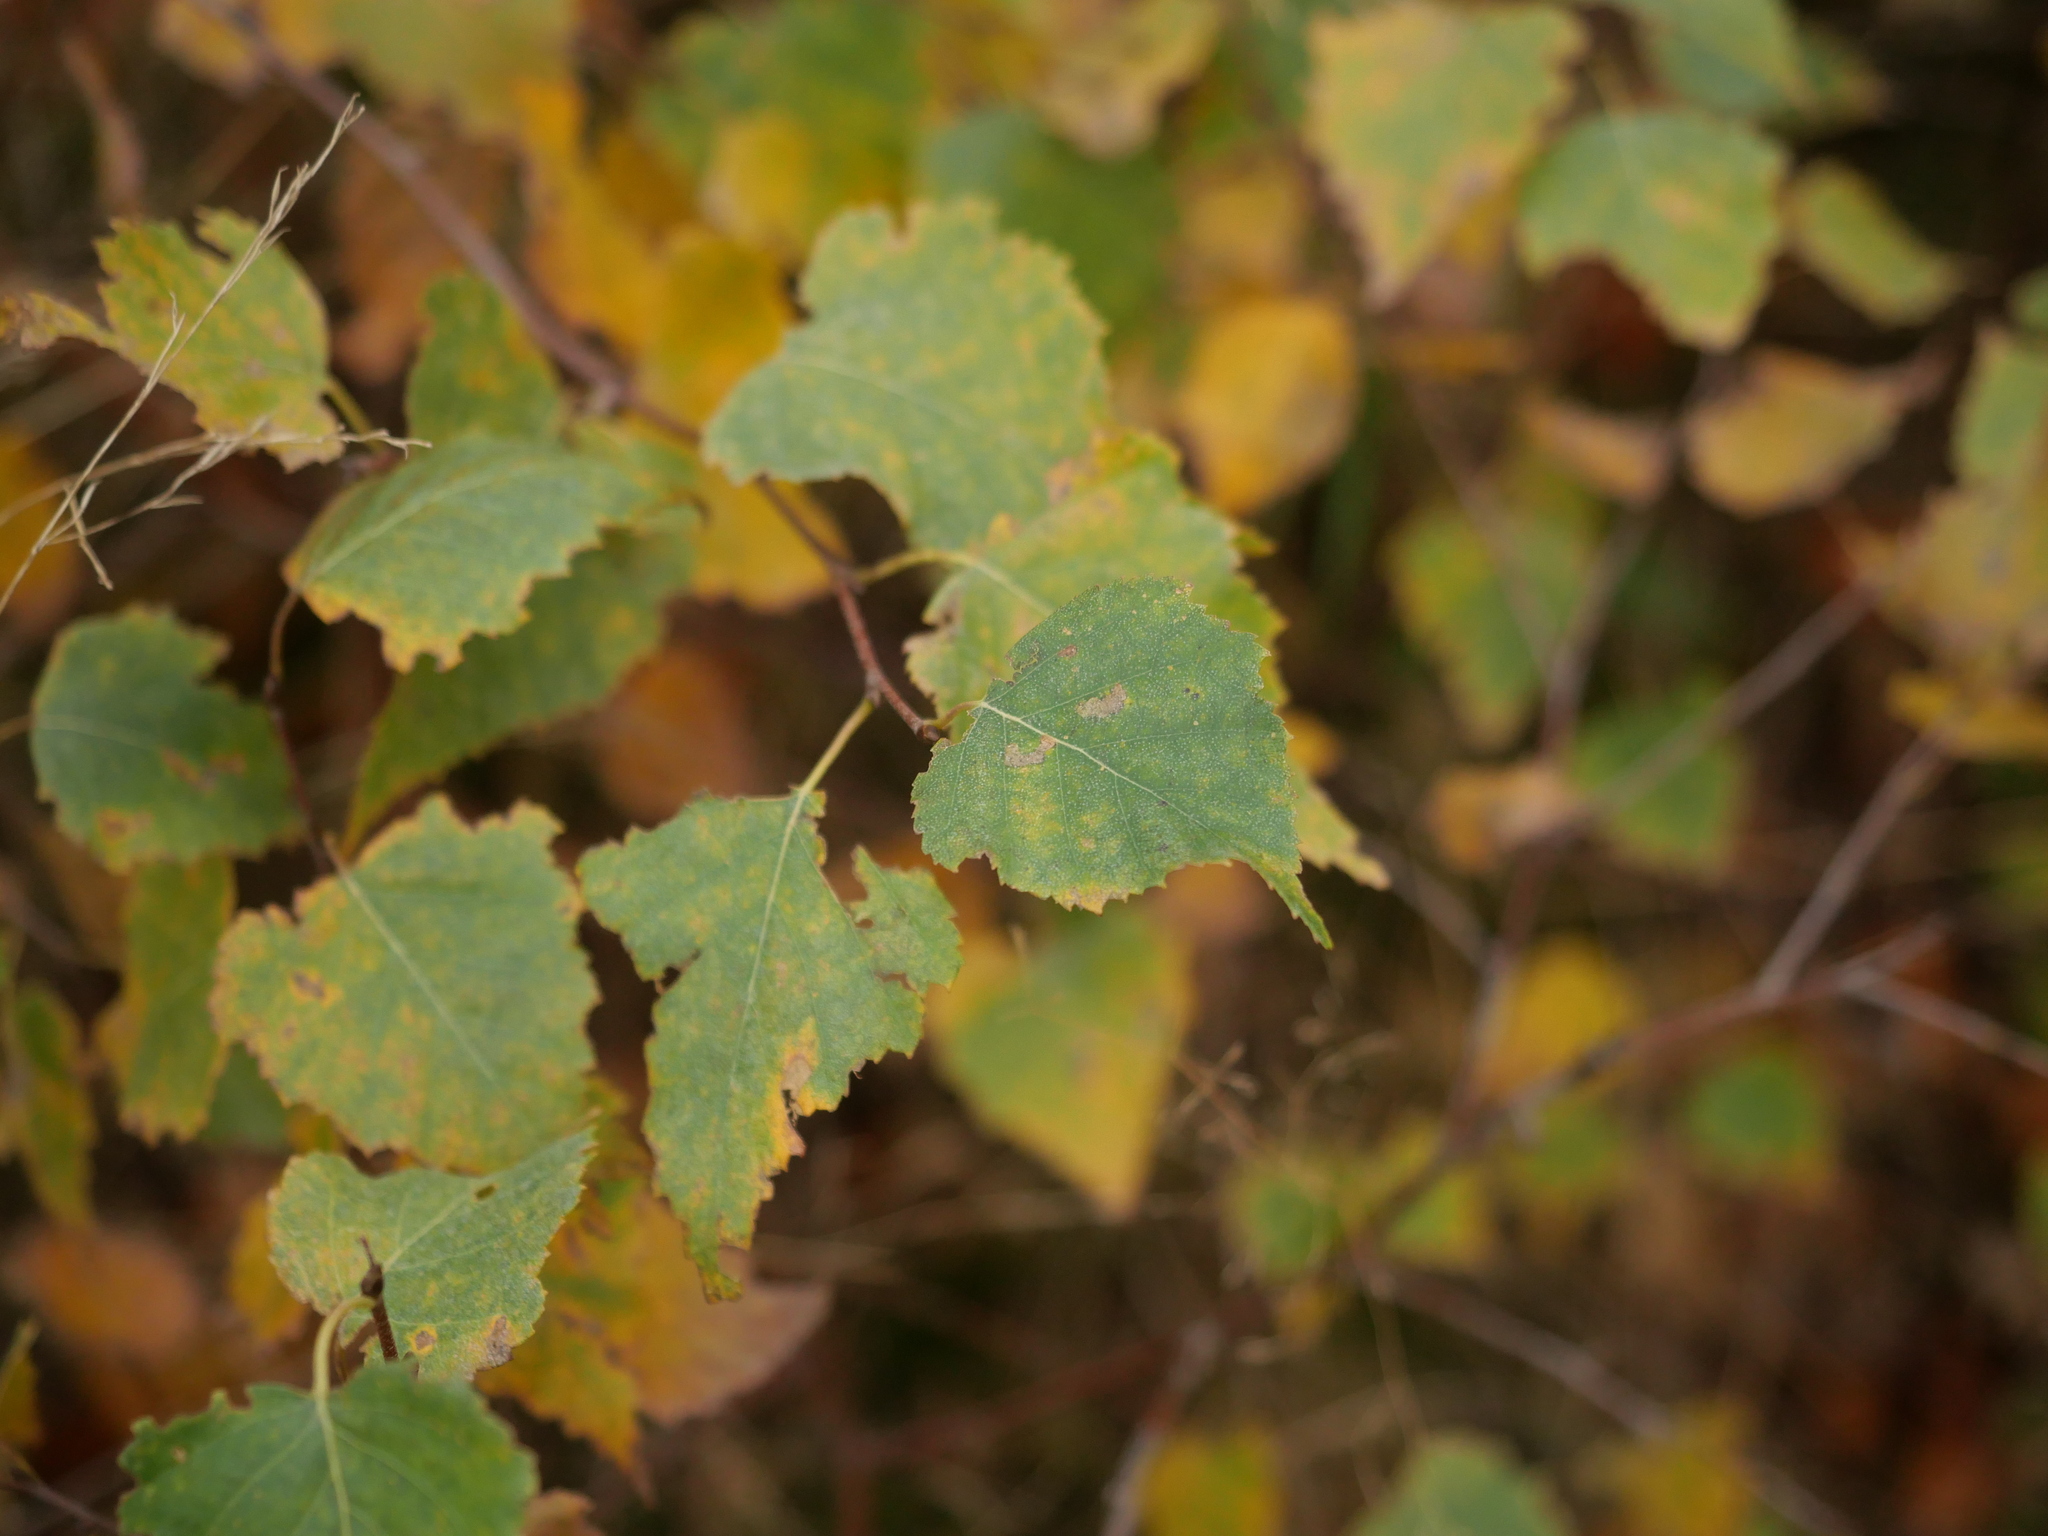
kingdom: Plantae
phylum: Tracheophyta
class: Magnoliopsida
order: Fagales
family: Betulaceae
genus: Betula
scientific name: Betula pendula
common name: Silver birch
